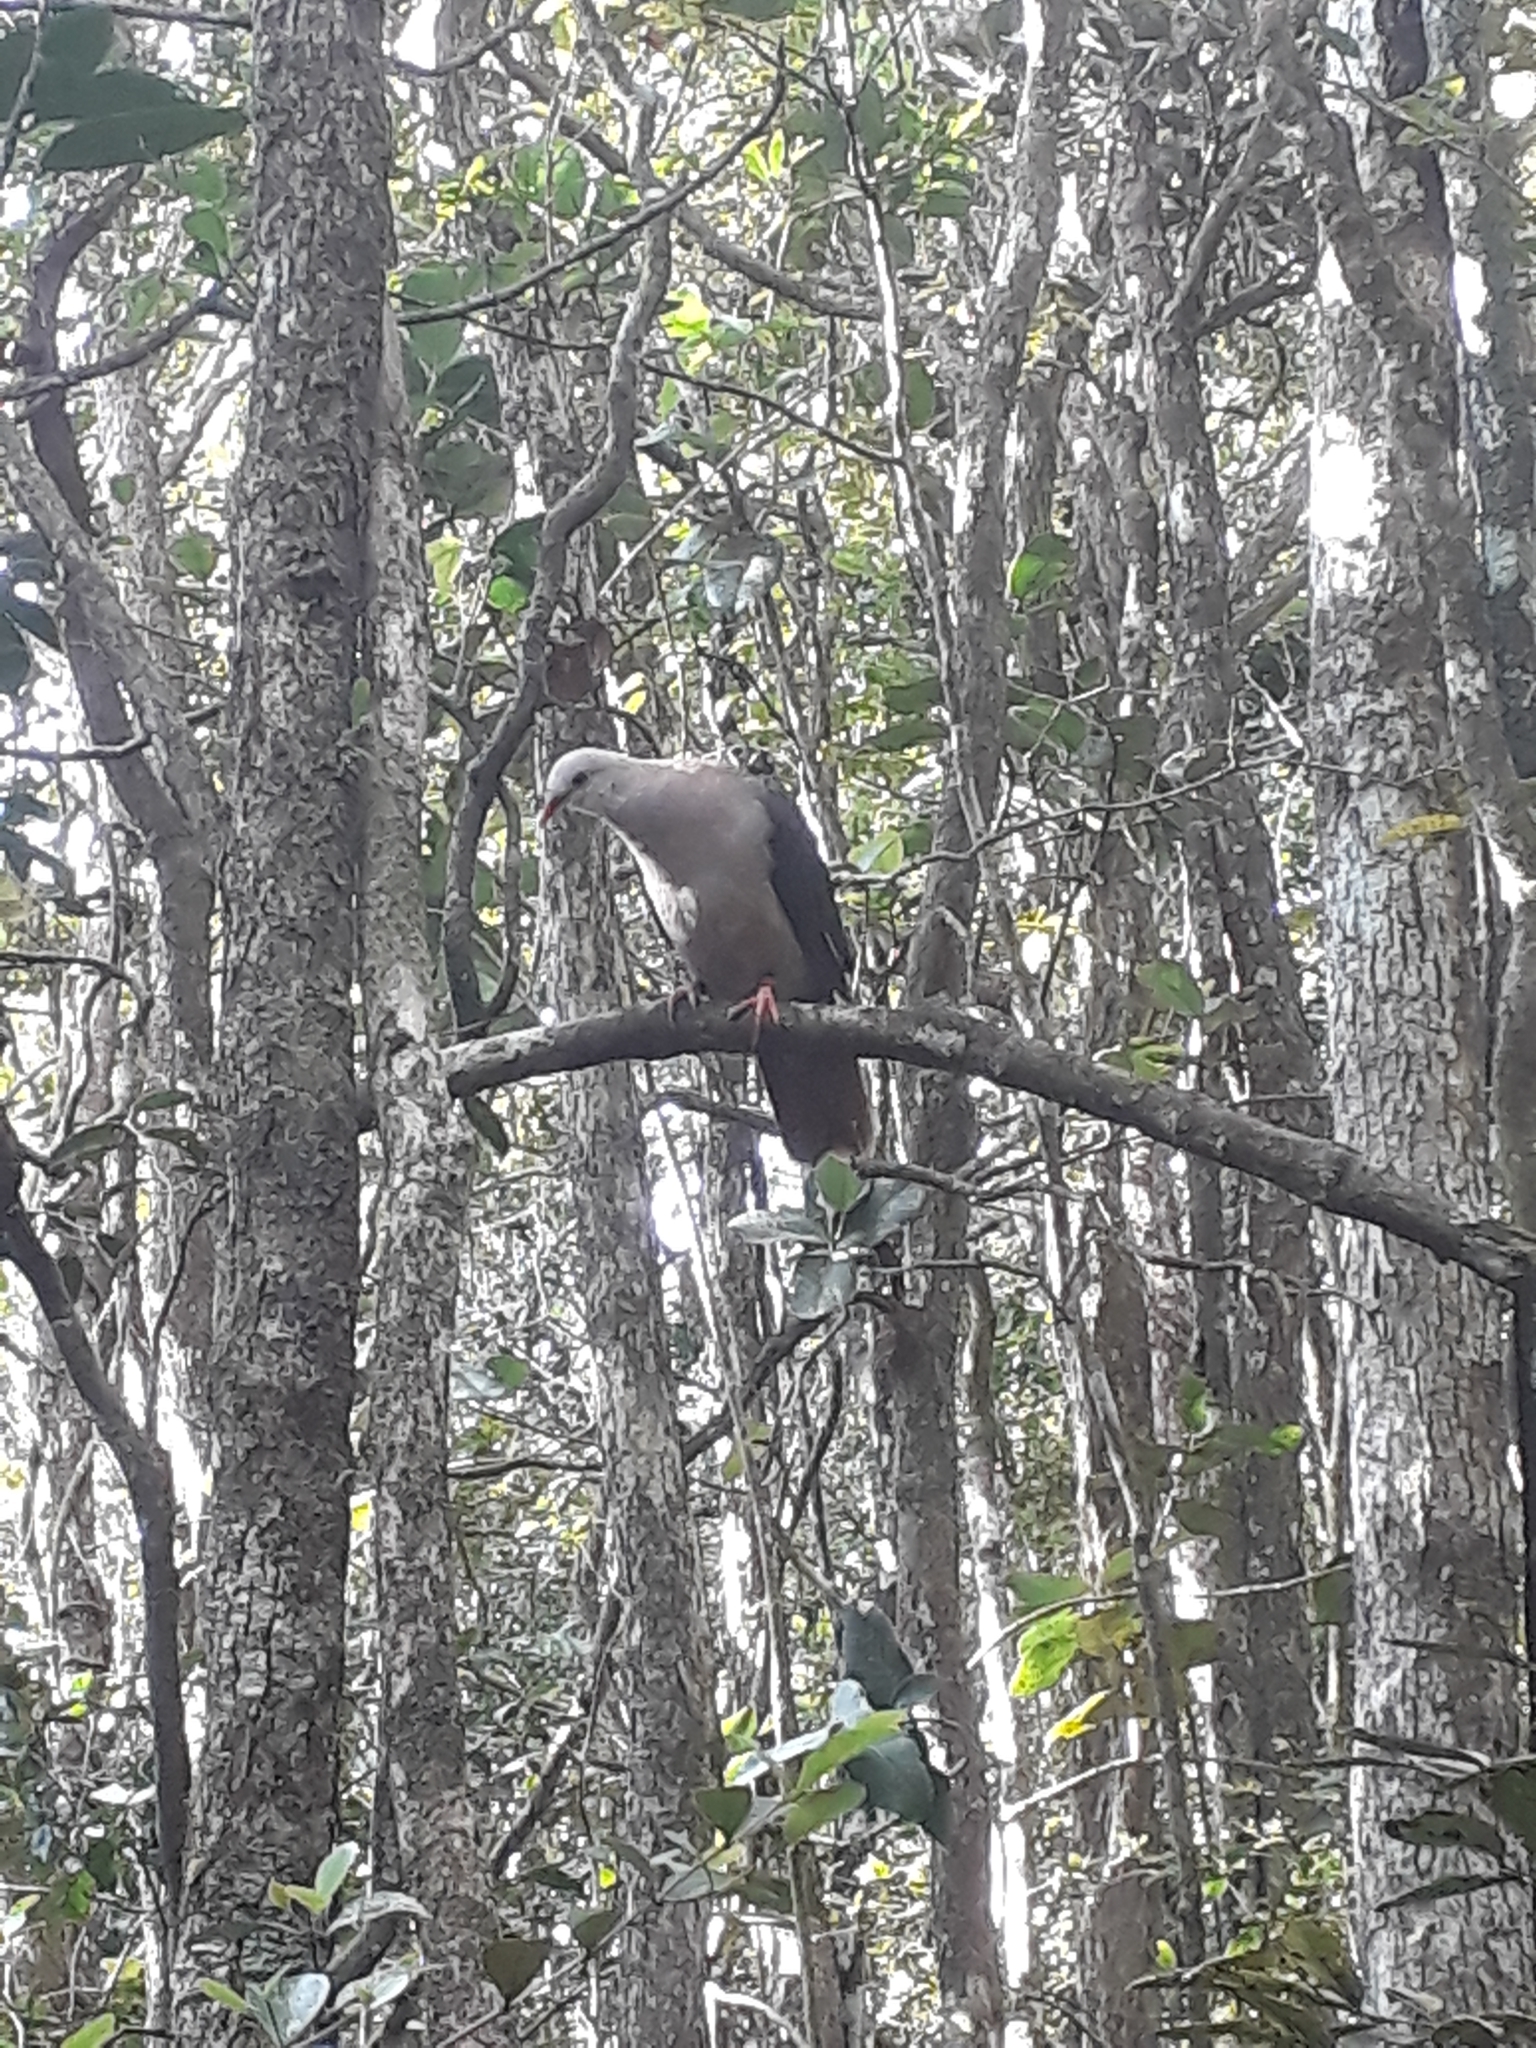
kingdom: Animalia
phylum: Chordata
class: Aves
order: Columbiformes
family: Columbidae
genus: Nesoenas
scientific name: Nesoenas mayeri
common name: Pink pigeon
